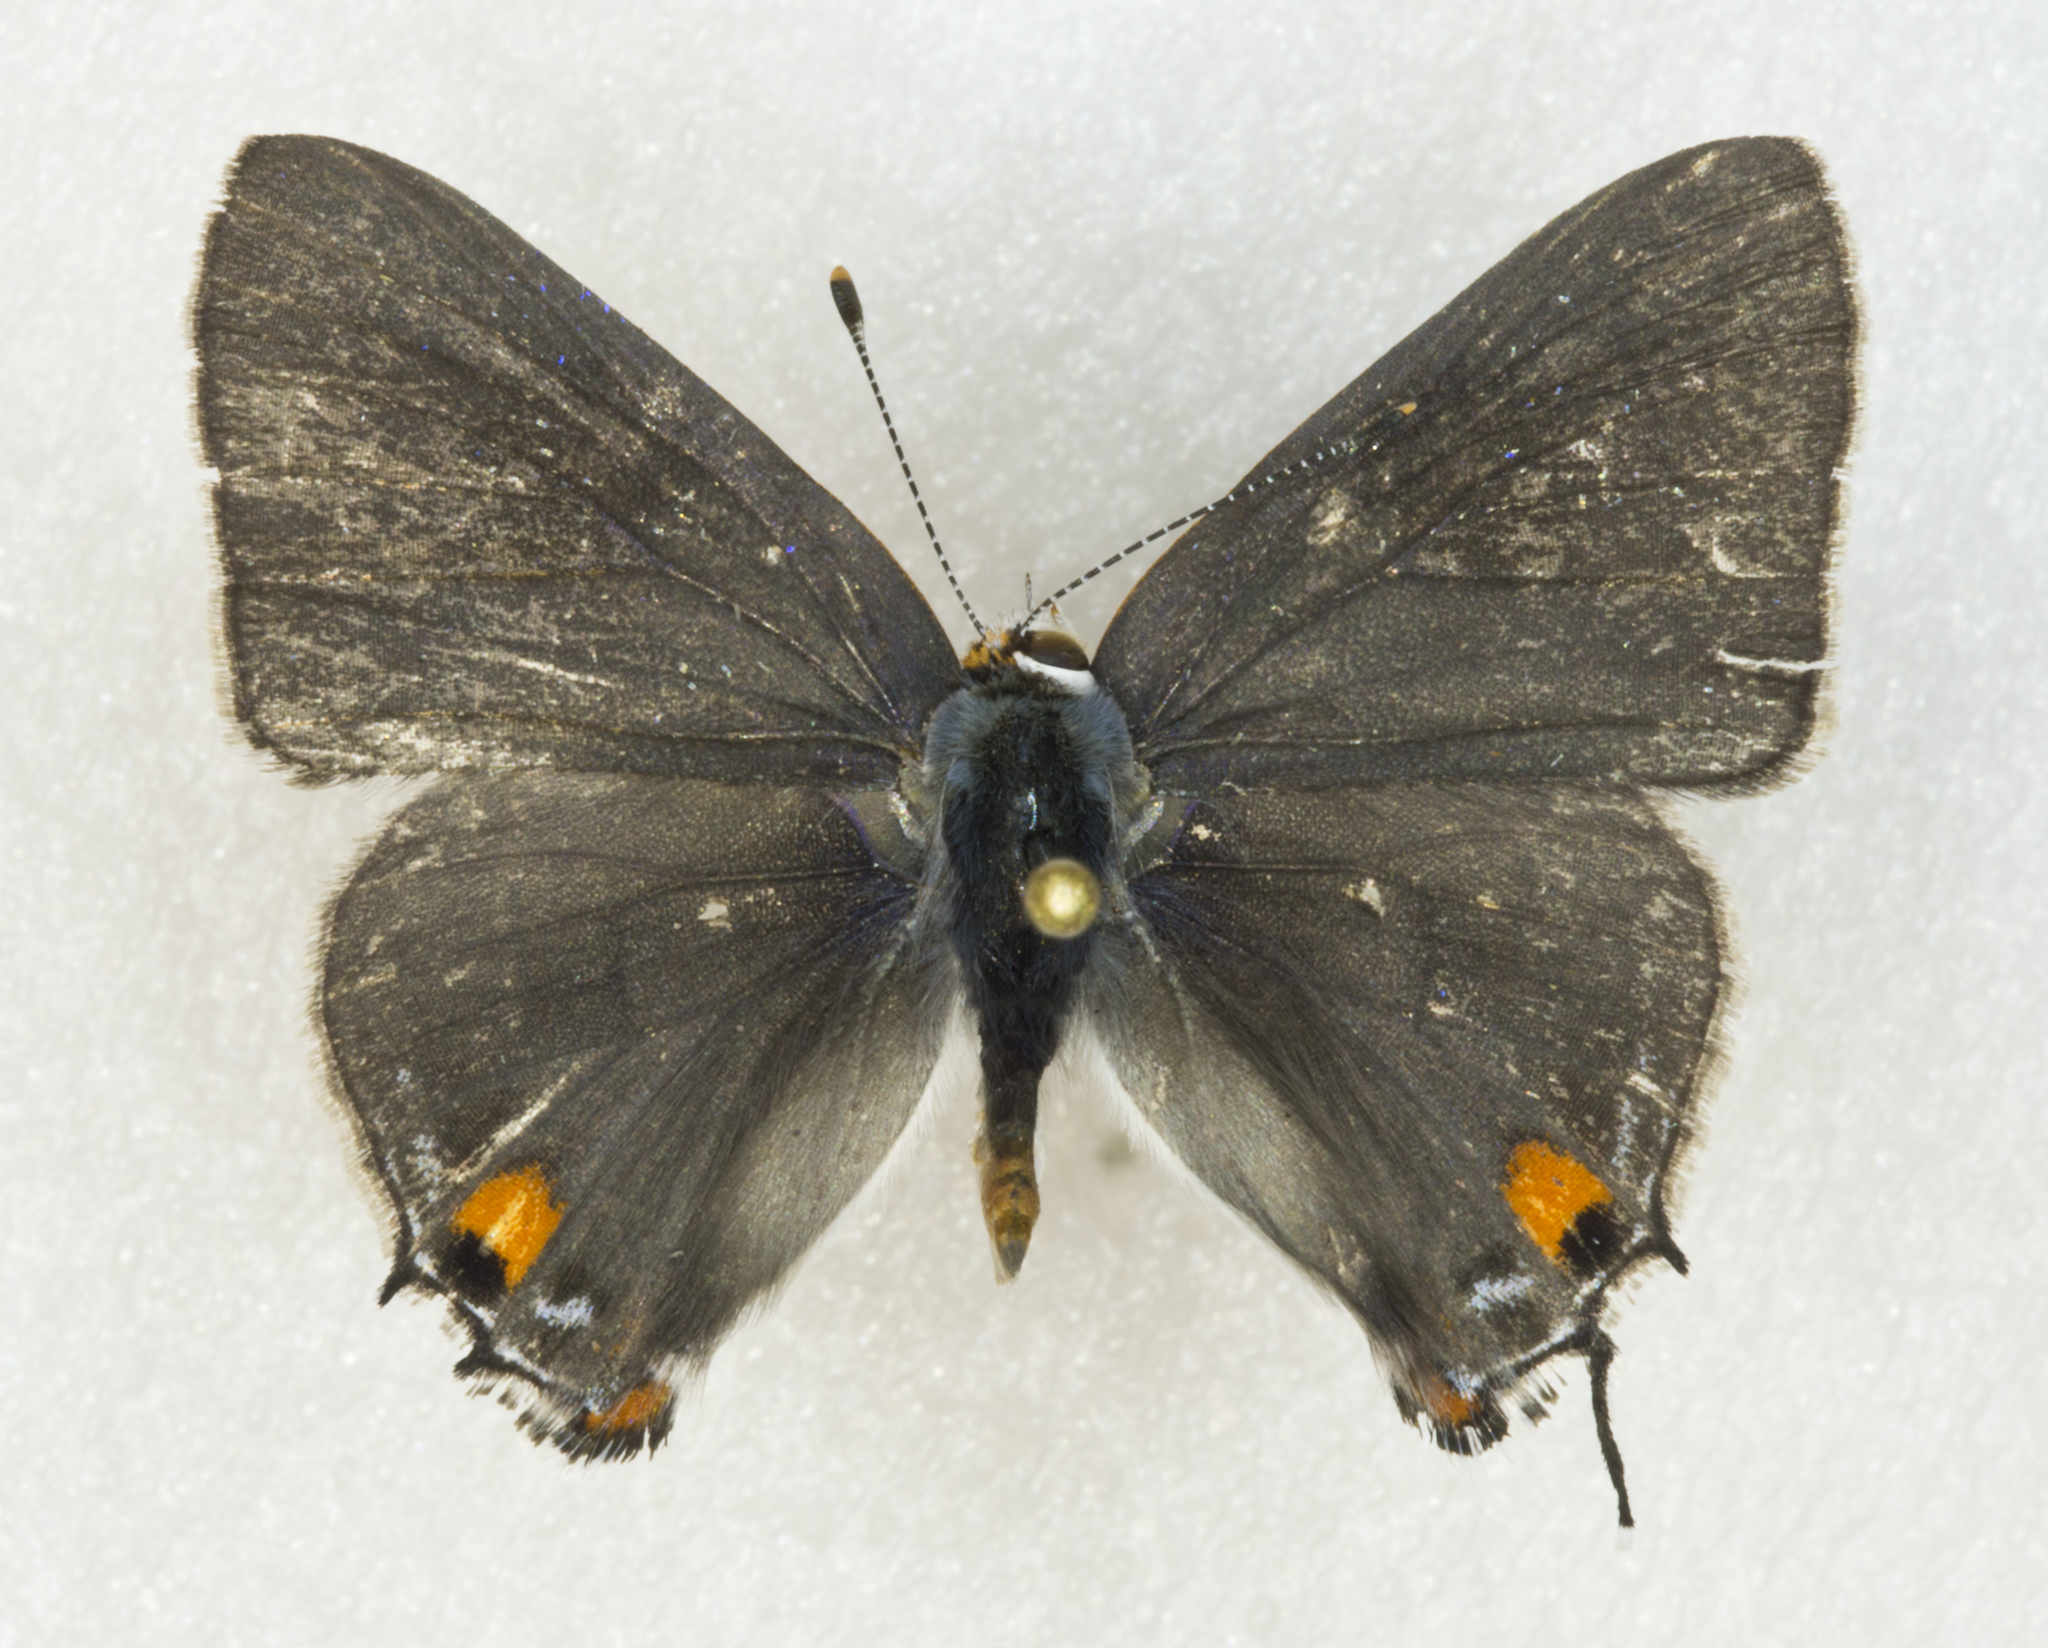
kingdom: Animalia
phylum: Arthropoda
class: Insecta
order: Lepidoptera
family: Lycaenidae
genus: Strymon
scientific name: Strymon melinus
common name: Gray hairstreak
